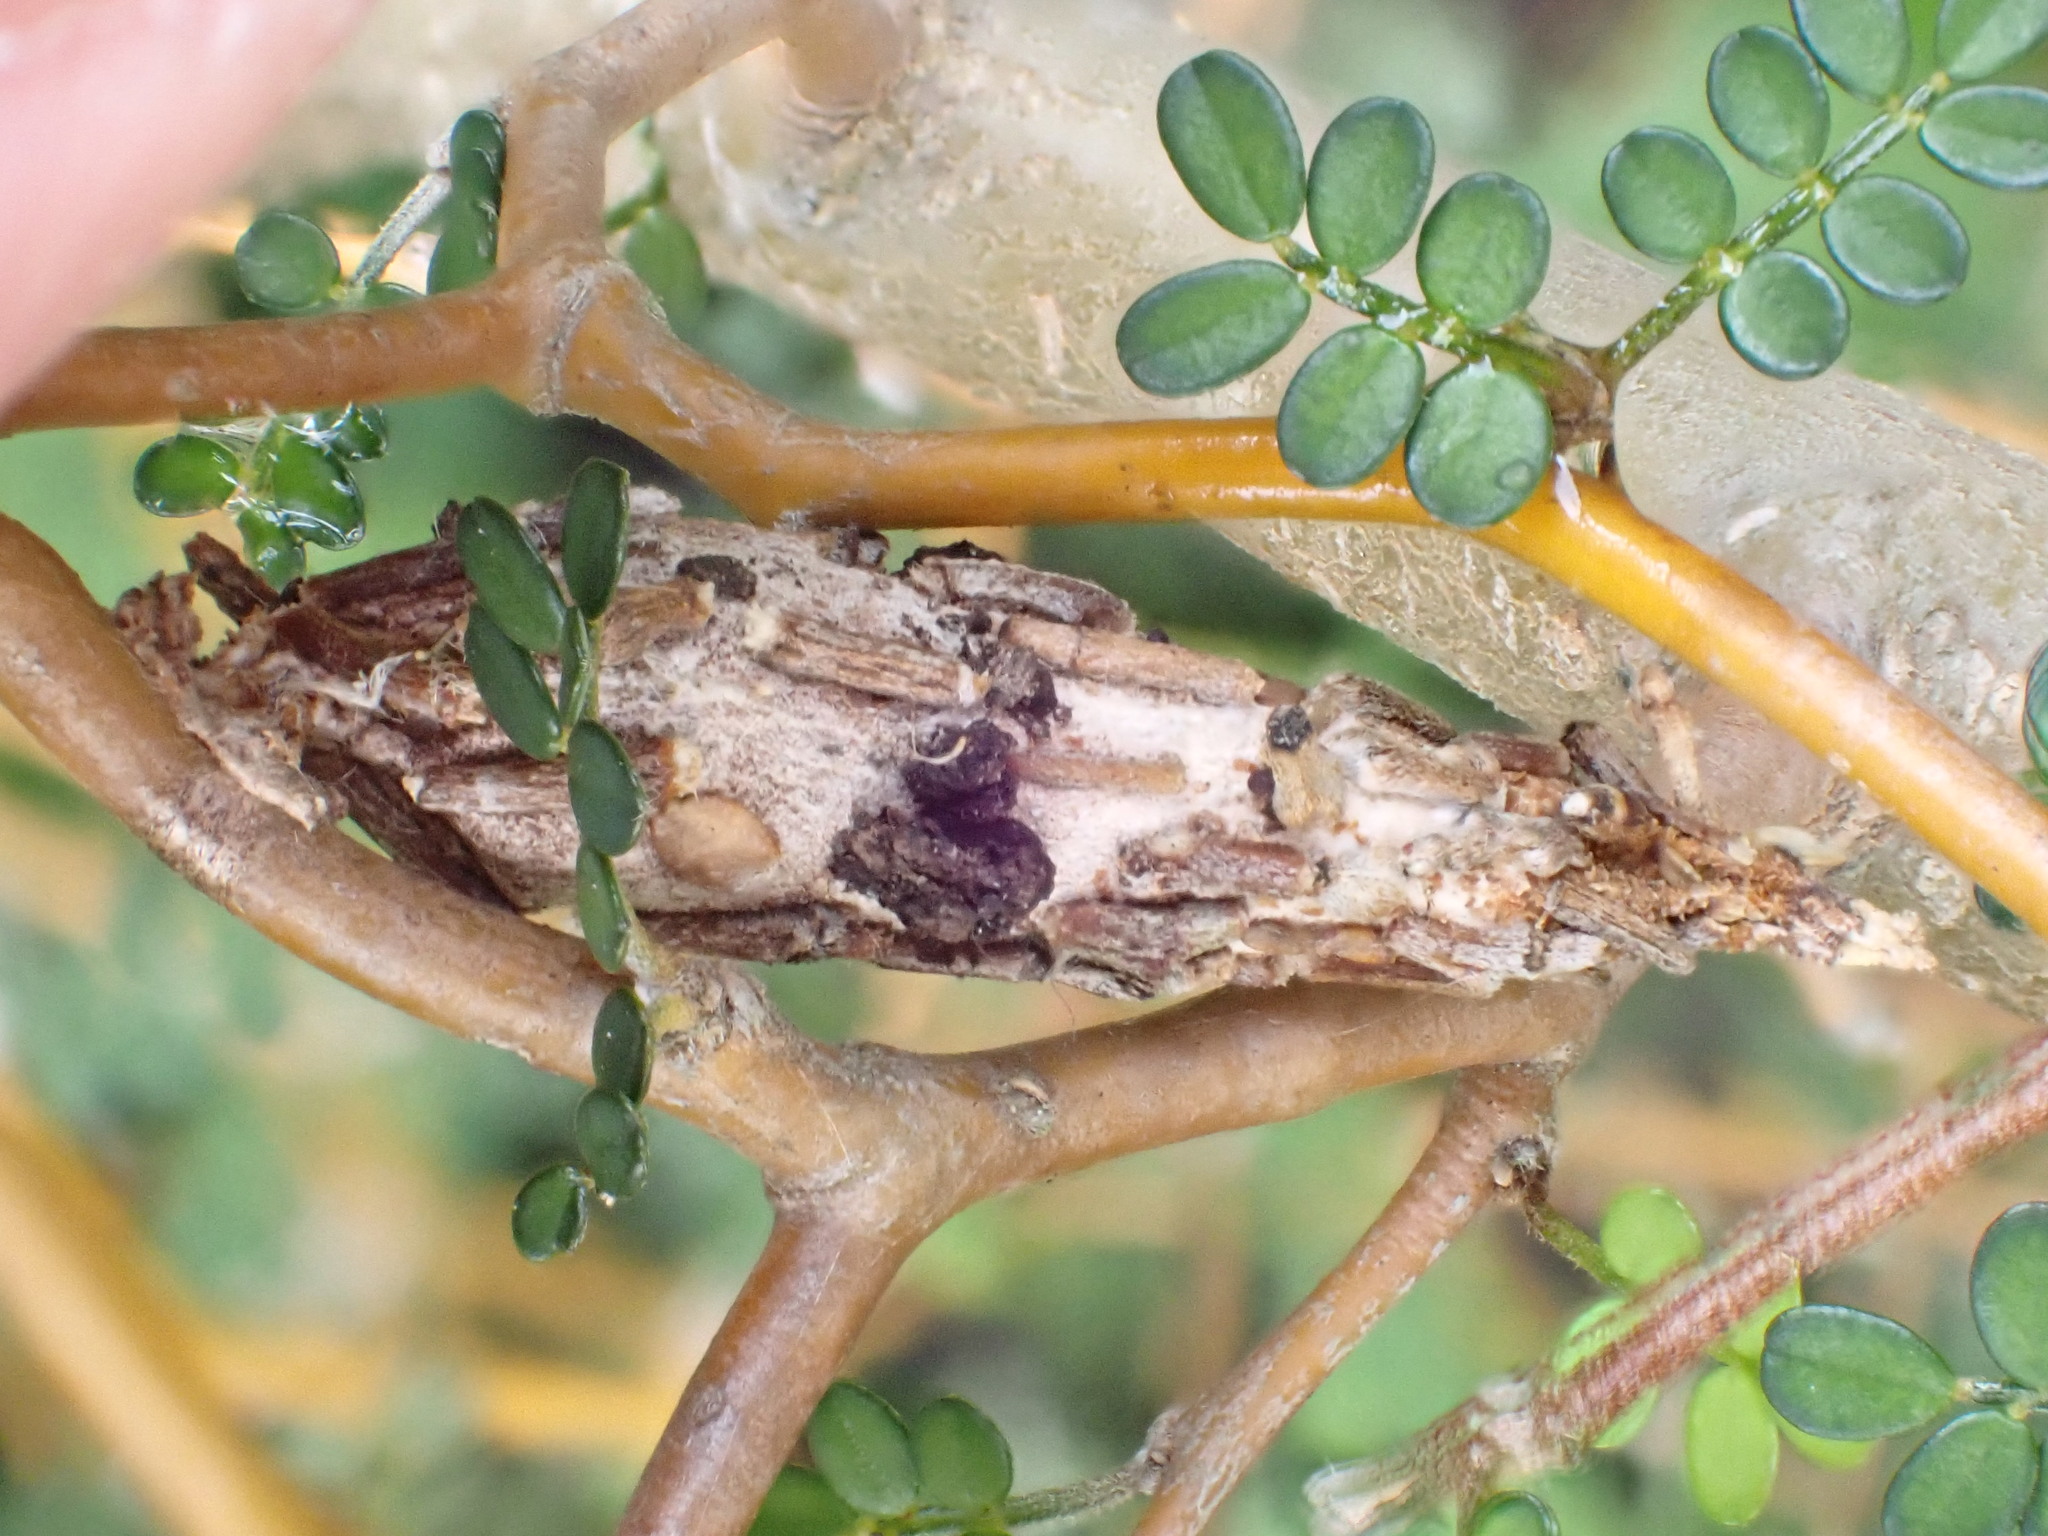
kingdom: Animalia
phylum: Arthropoda
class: Insecta
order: Lepidoptera
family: Psychidae
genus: Liothula
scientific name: Liothula omnivora
